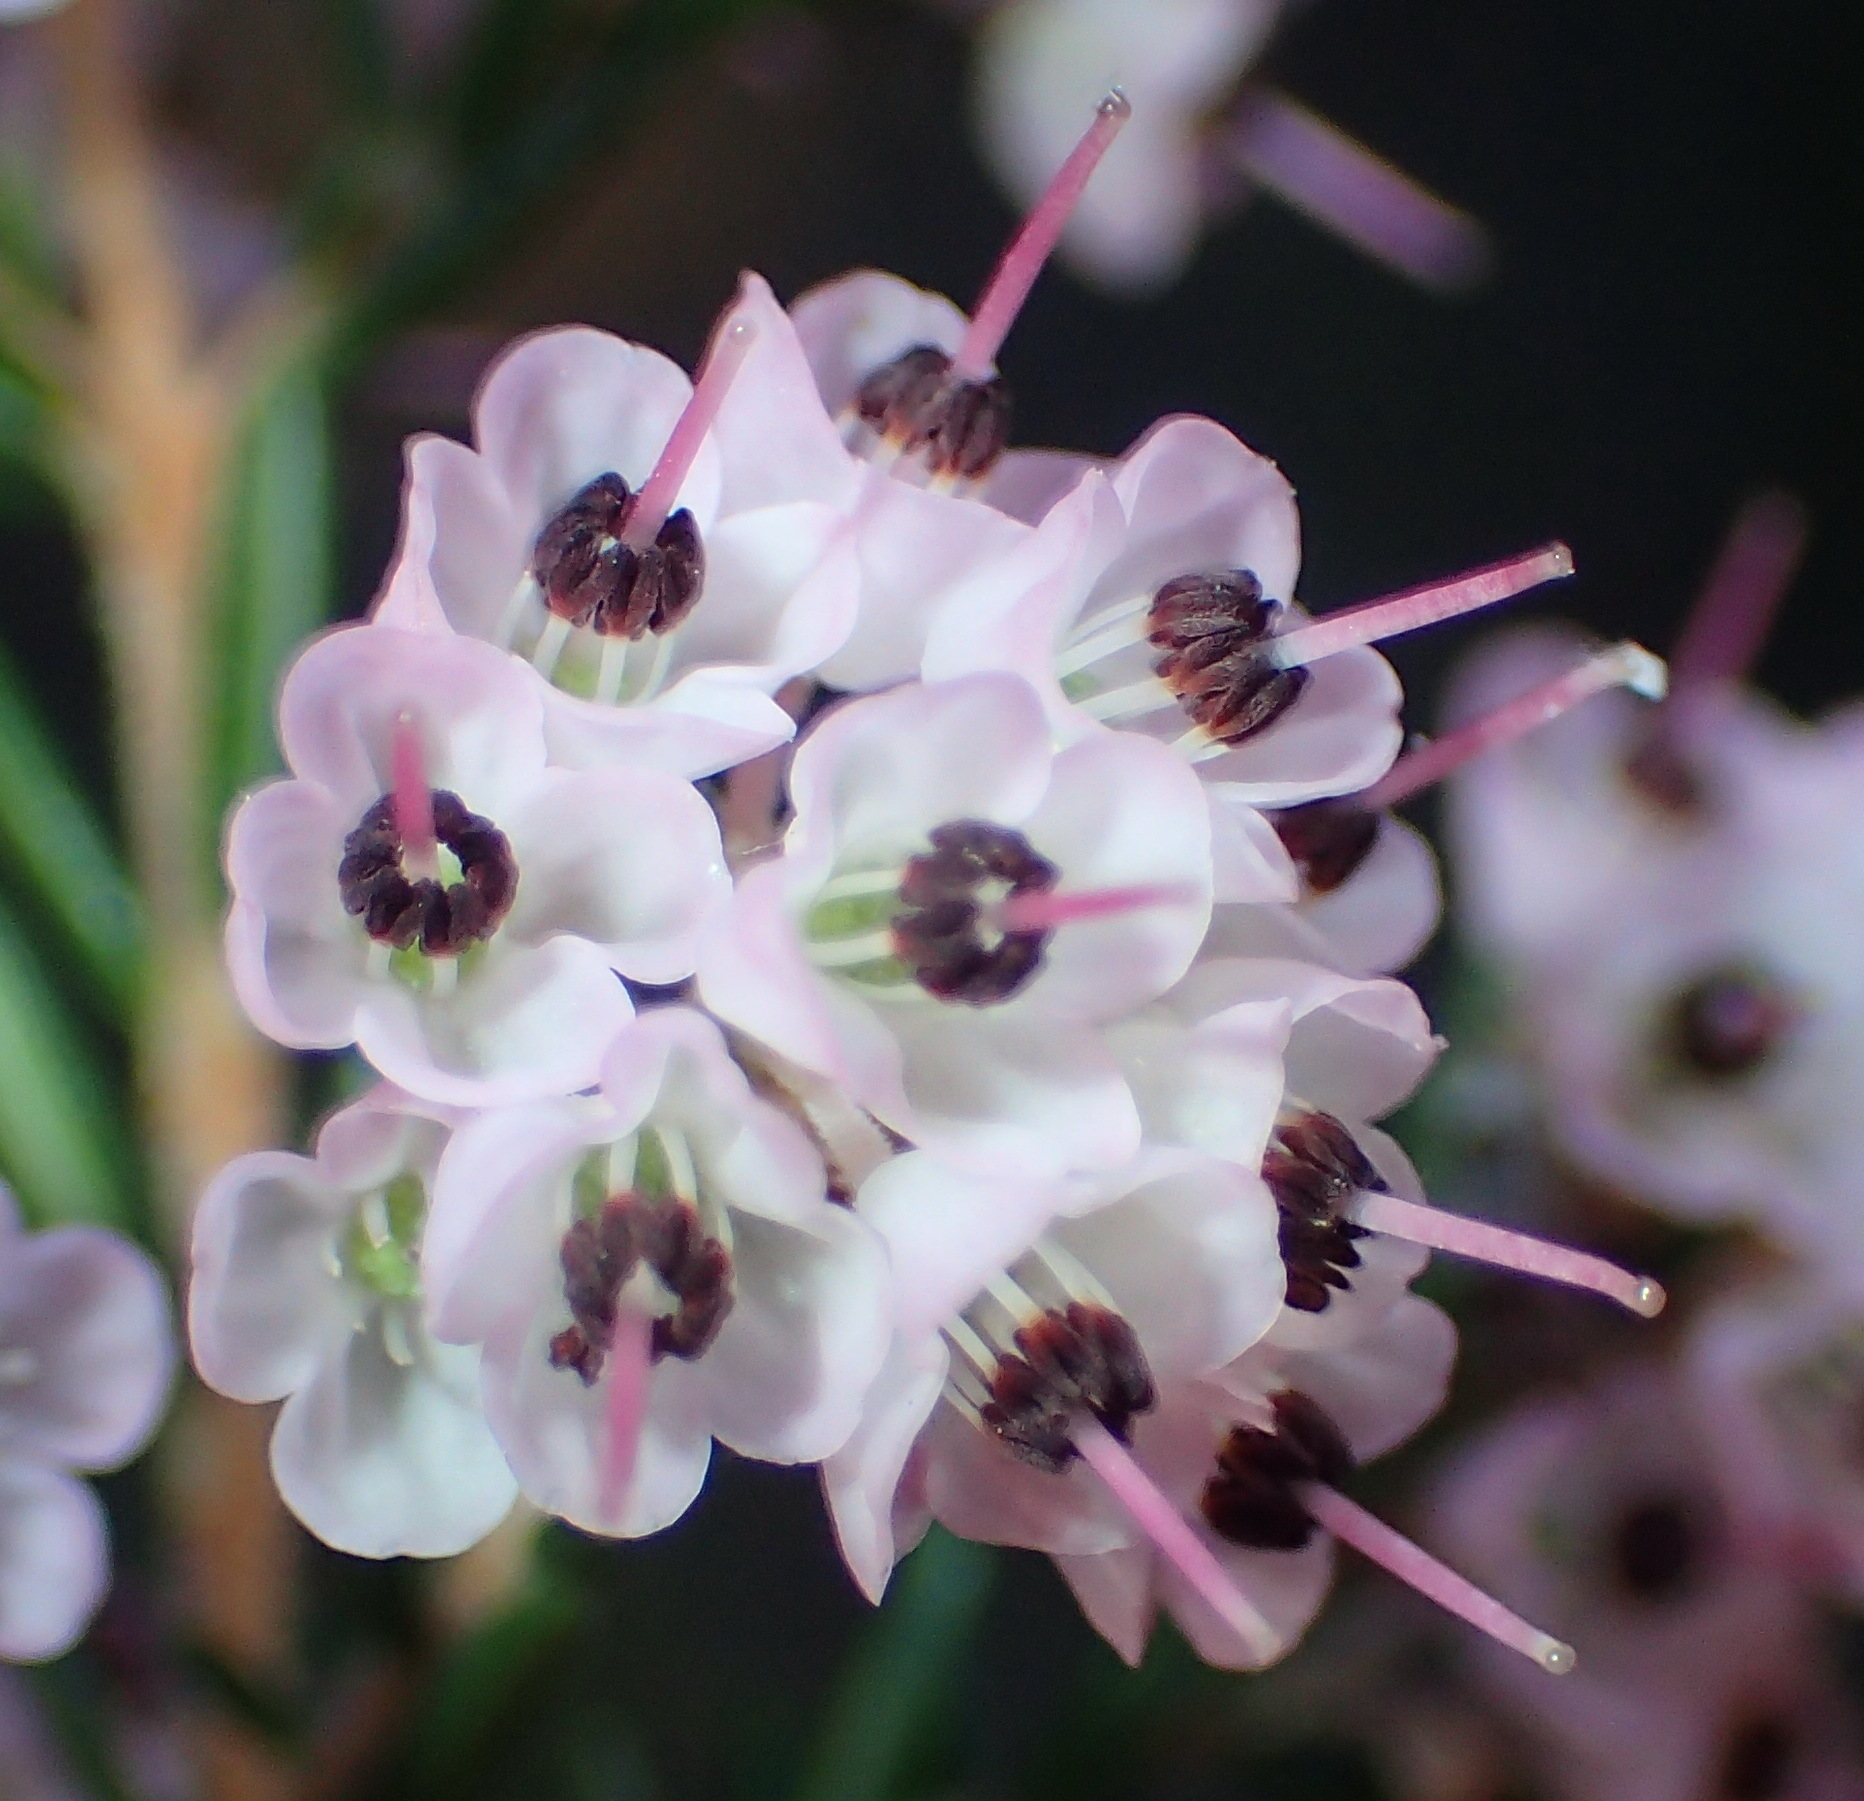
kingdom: Plantae
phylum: Tracheophyta
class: Magnoliopsida
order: Ericales
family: Ericaceae
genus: Erica
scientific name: Erica canaliculata
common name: Hairy grey heather
